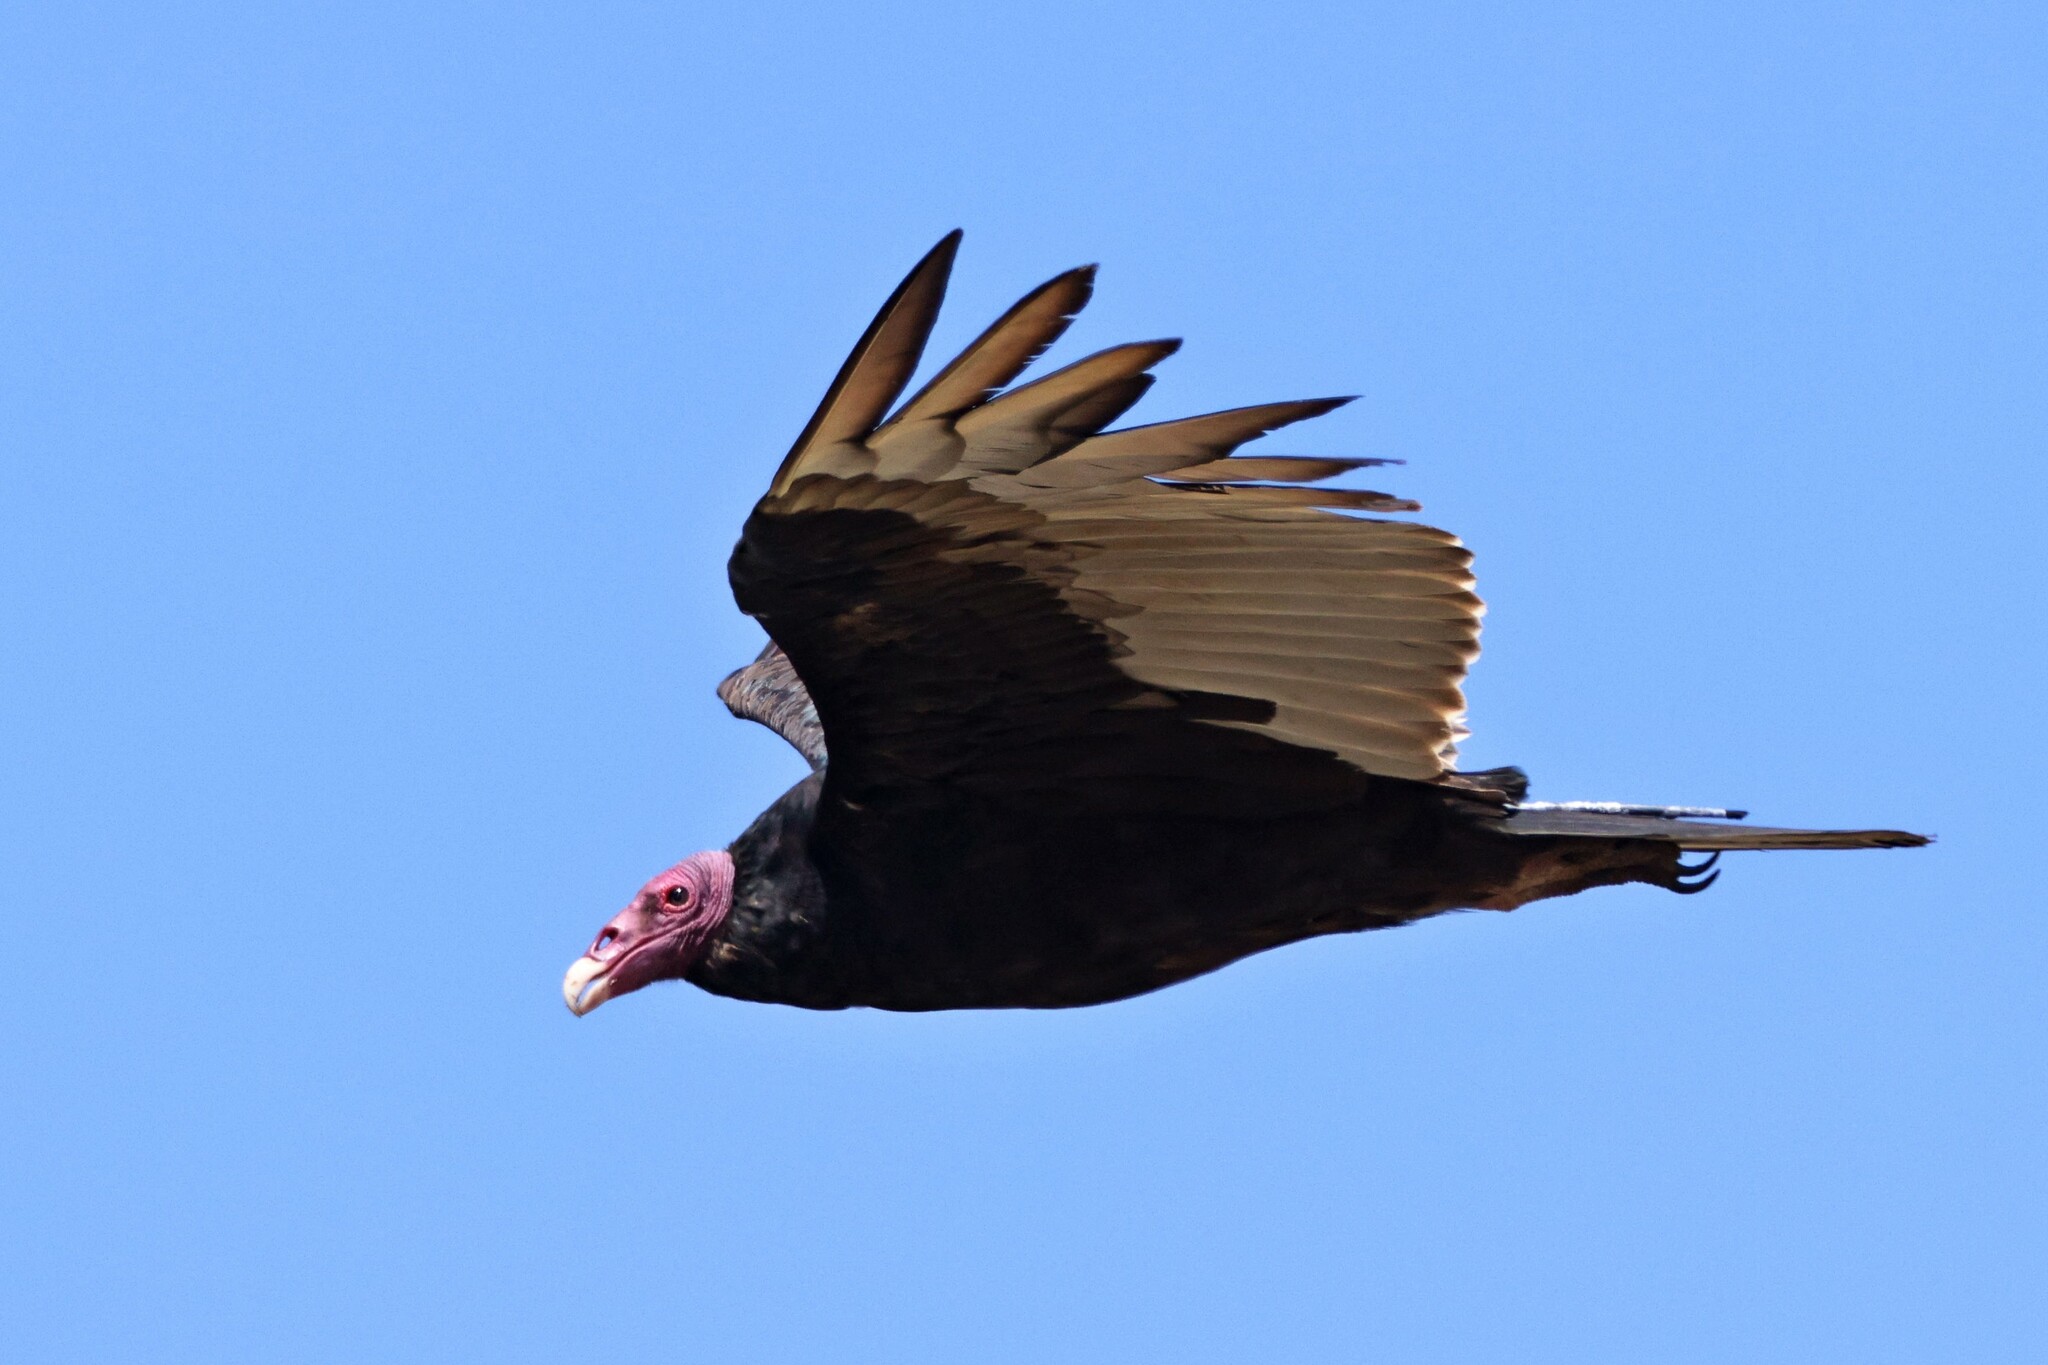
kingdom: Animalia
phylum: Chordata
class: Aves
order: Accipitriformes
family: Cathartidae
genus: Cathartes
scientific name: Cathartes aura
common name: Turkey vulture
